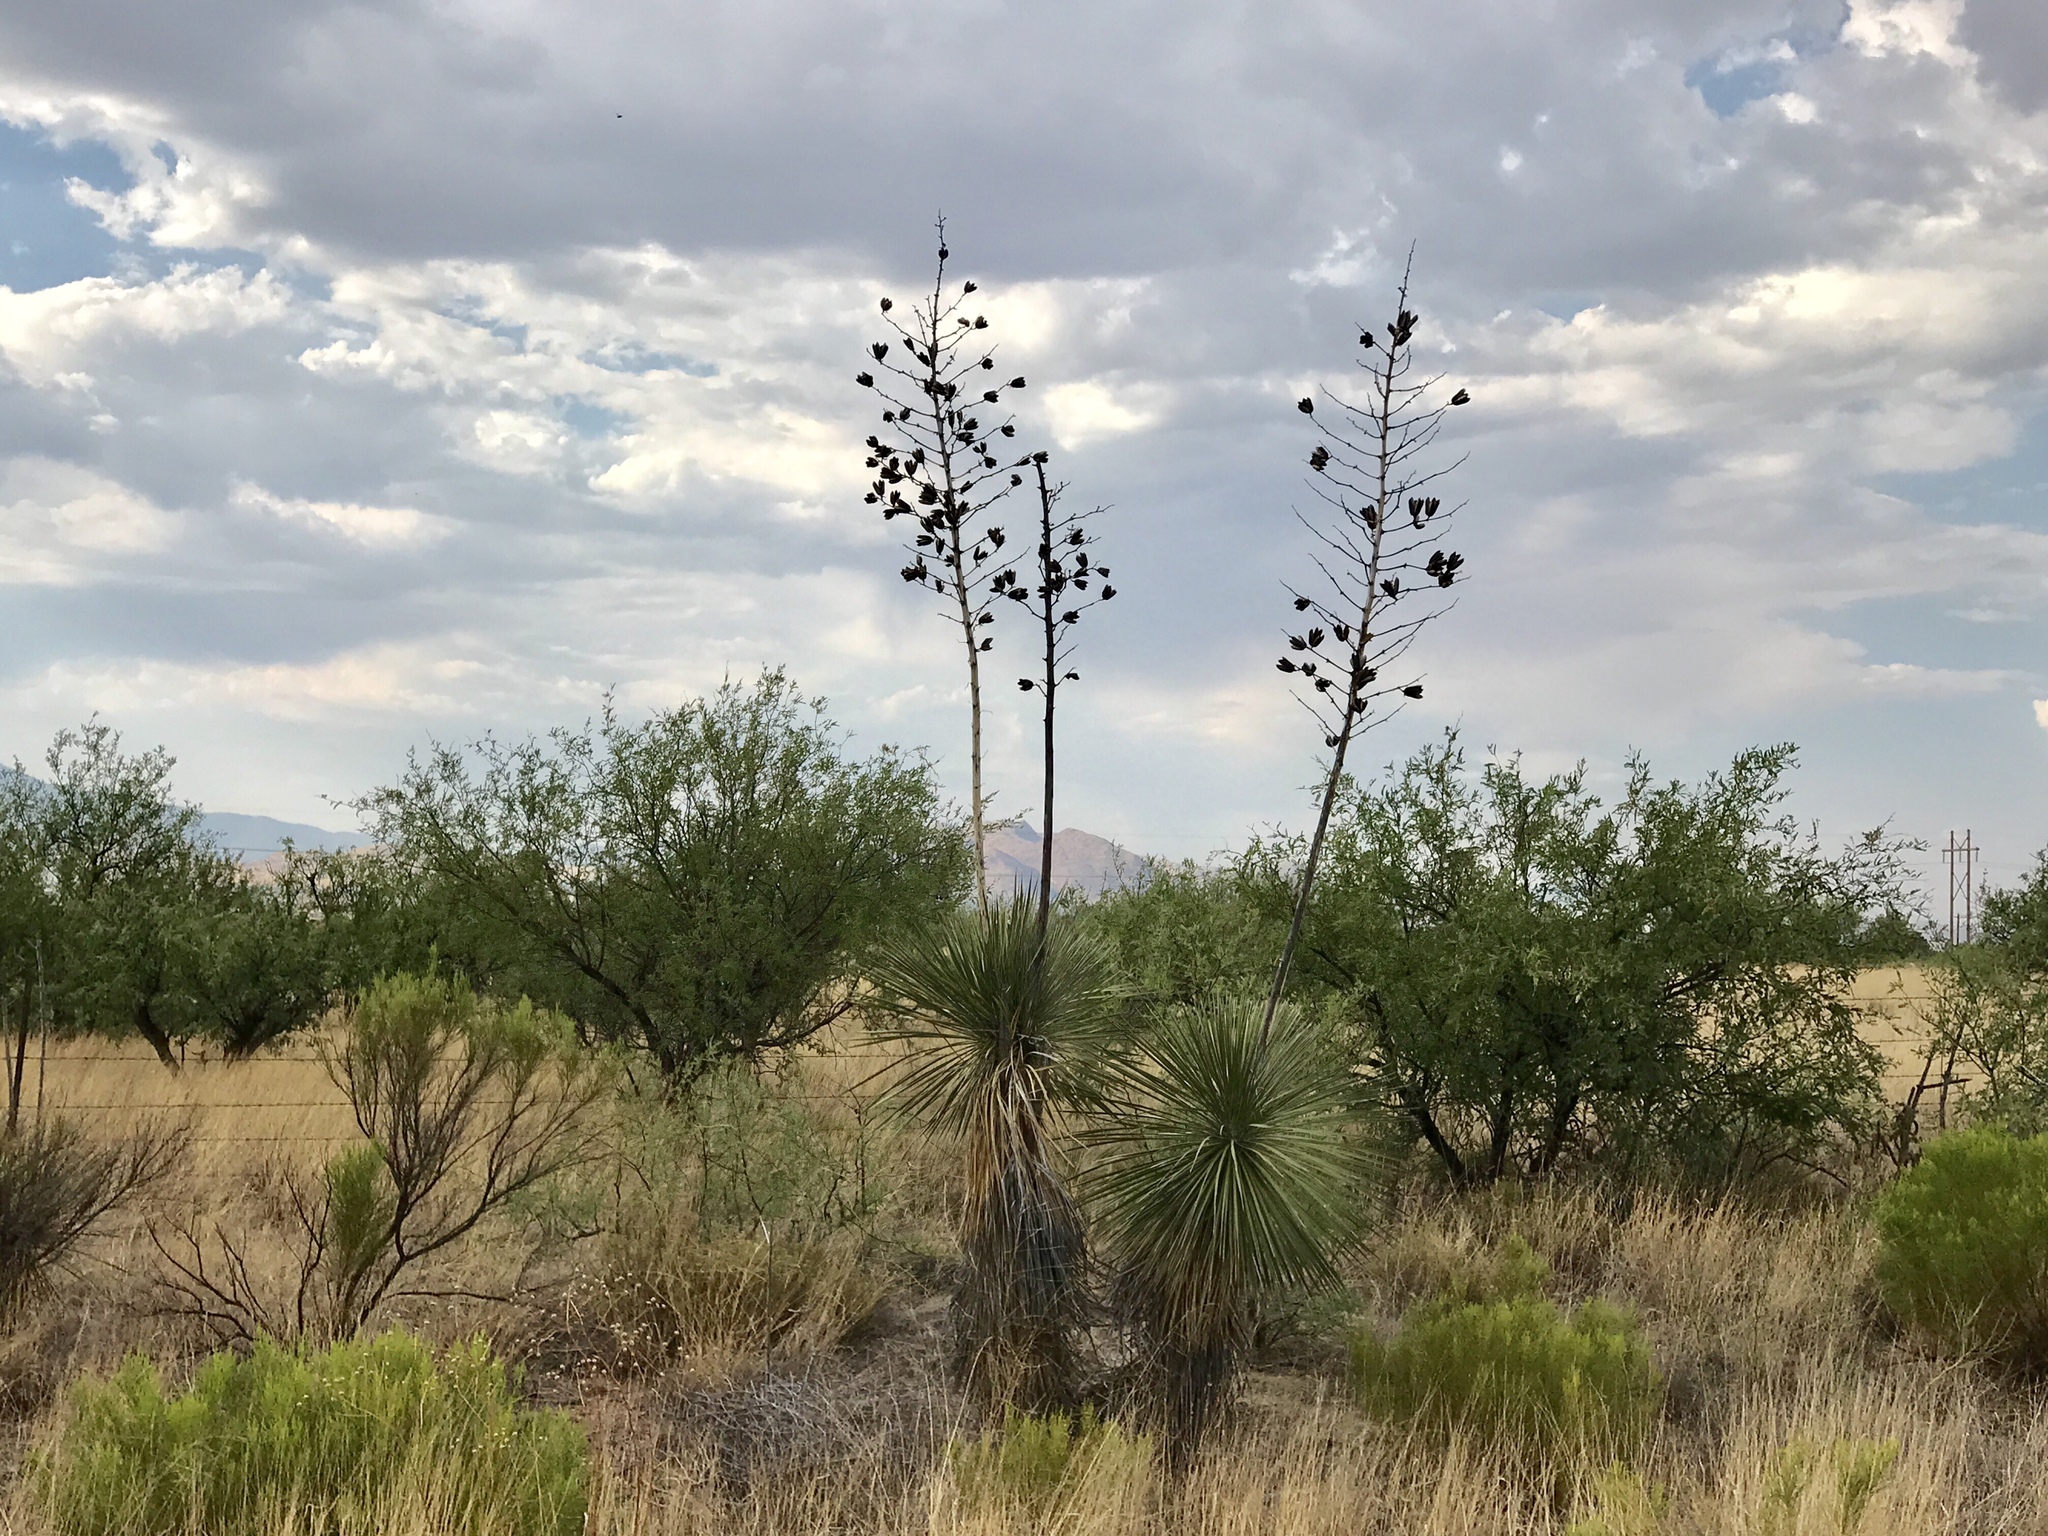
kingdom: Plantae
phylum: Tracheophyta
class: Liliopsida
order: Asparagales
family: Asparagaceae
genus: Yucca
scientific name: Yucca elata
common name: Palmella
